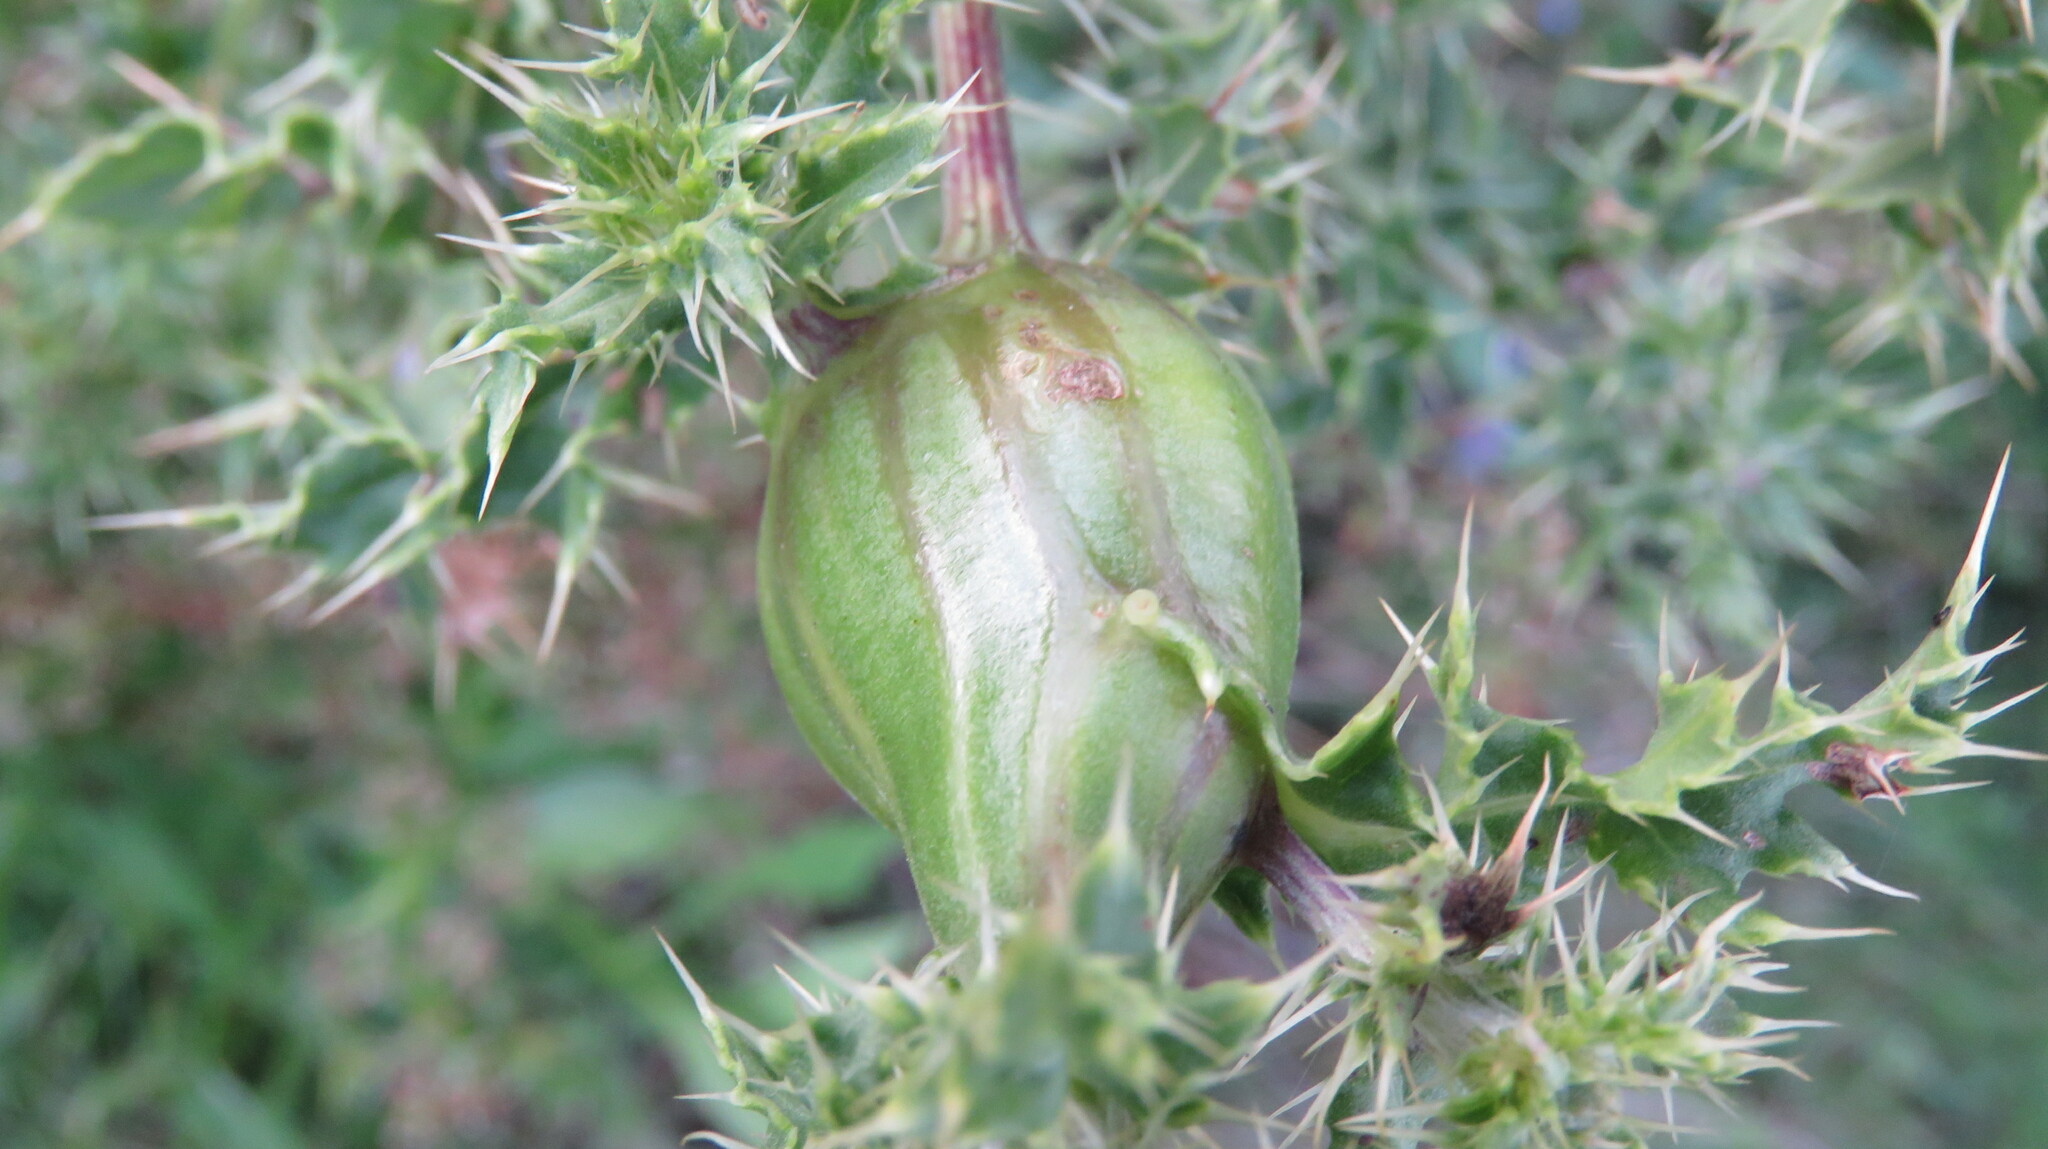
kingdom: Animalia
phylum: Arthropoda
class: Insecta
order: Diptera
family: Tephritidae
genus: Urophora
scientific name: Urophora cardui
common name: Fruit fly
